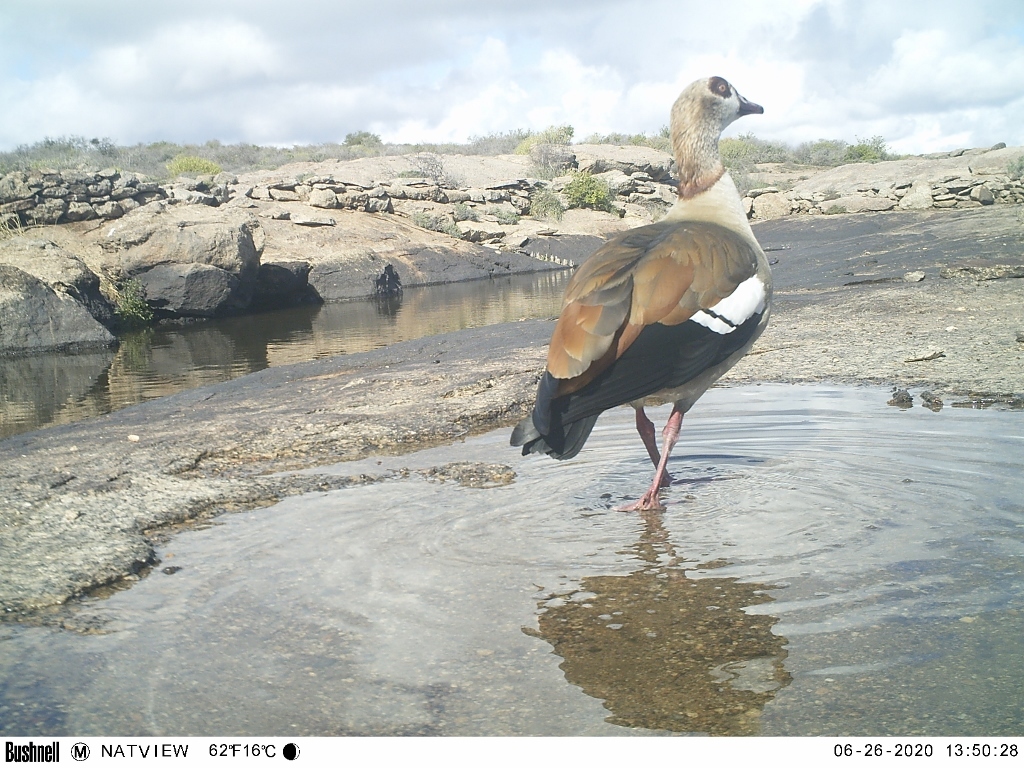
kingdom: Animalia
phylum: Chordata
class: Aves
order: Anseriformes
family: Anatidae
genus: Alopochen
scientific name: Alopochen aegyptiaca
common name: Egyptian goose
